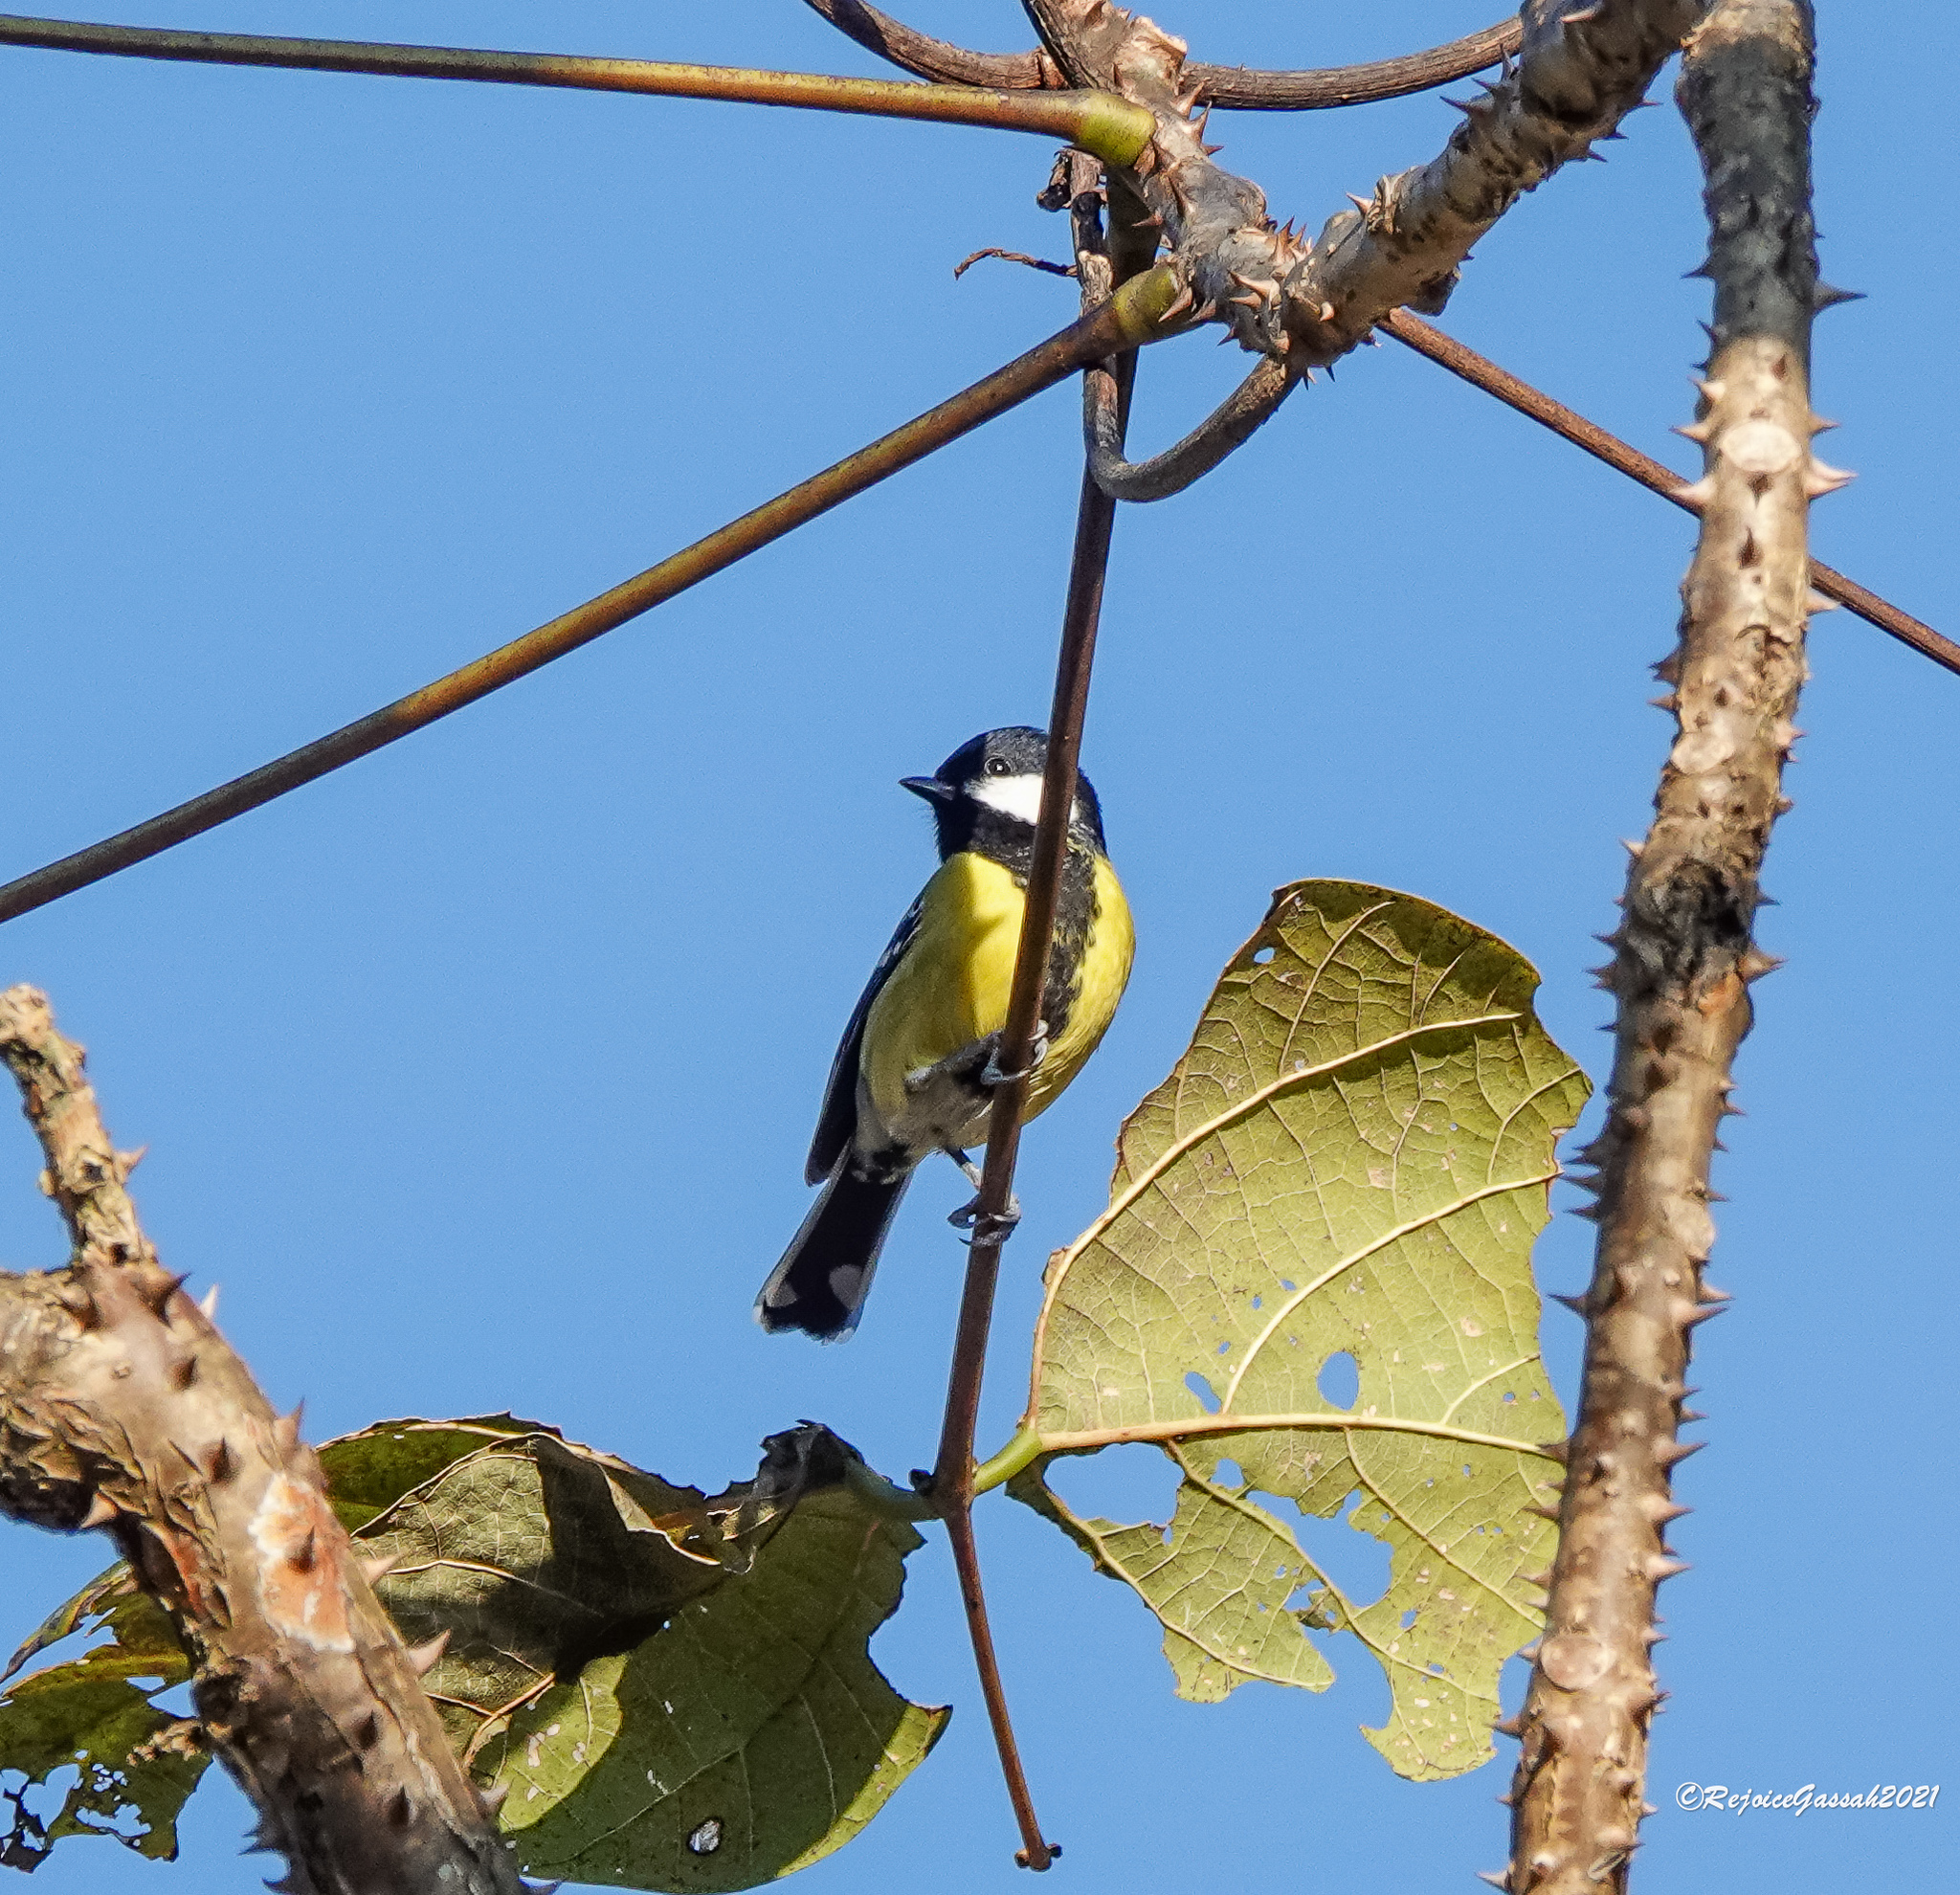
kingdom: Animalia
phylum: Chordata
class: Aves
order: Passeriformes
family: Paridae
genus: Parus
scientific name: Parus monticolus
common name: Green-backed tit
